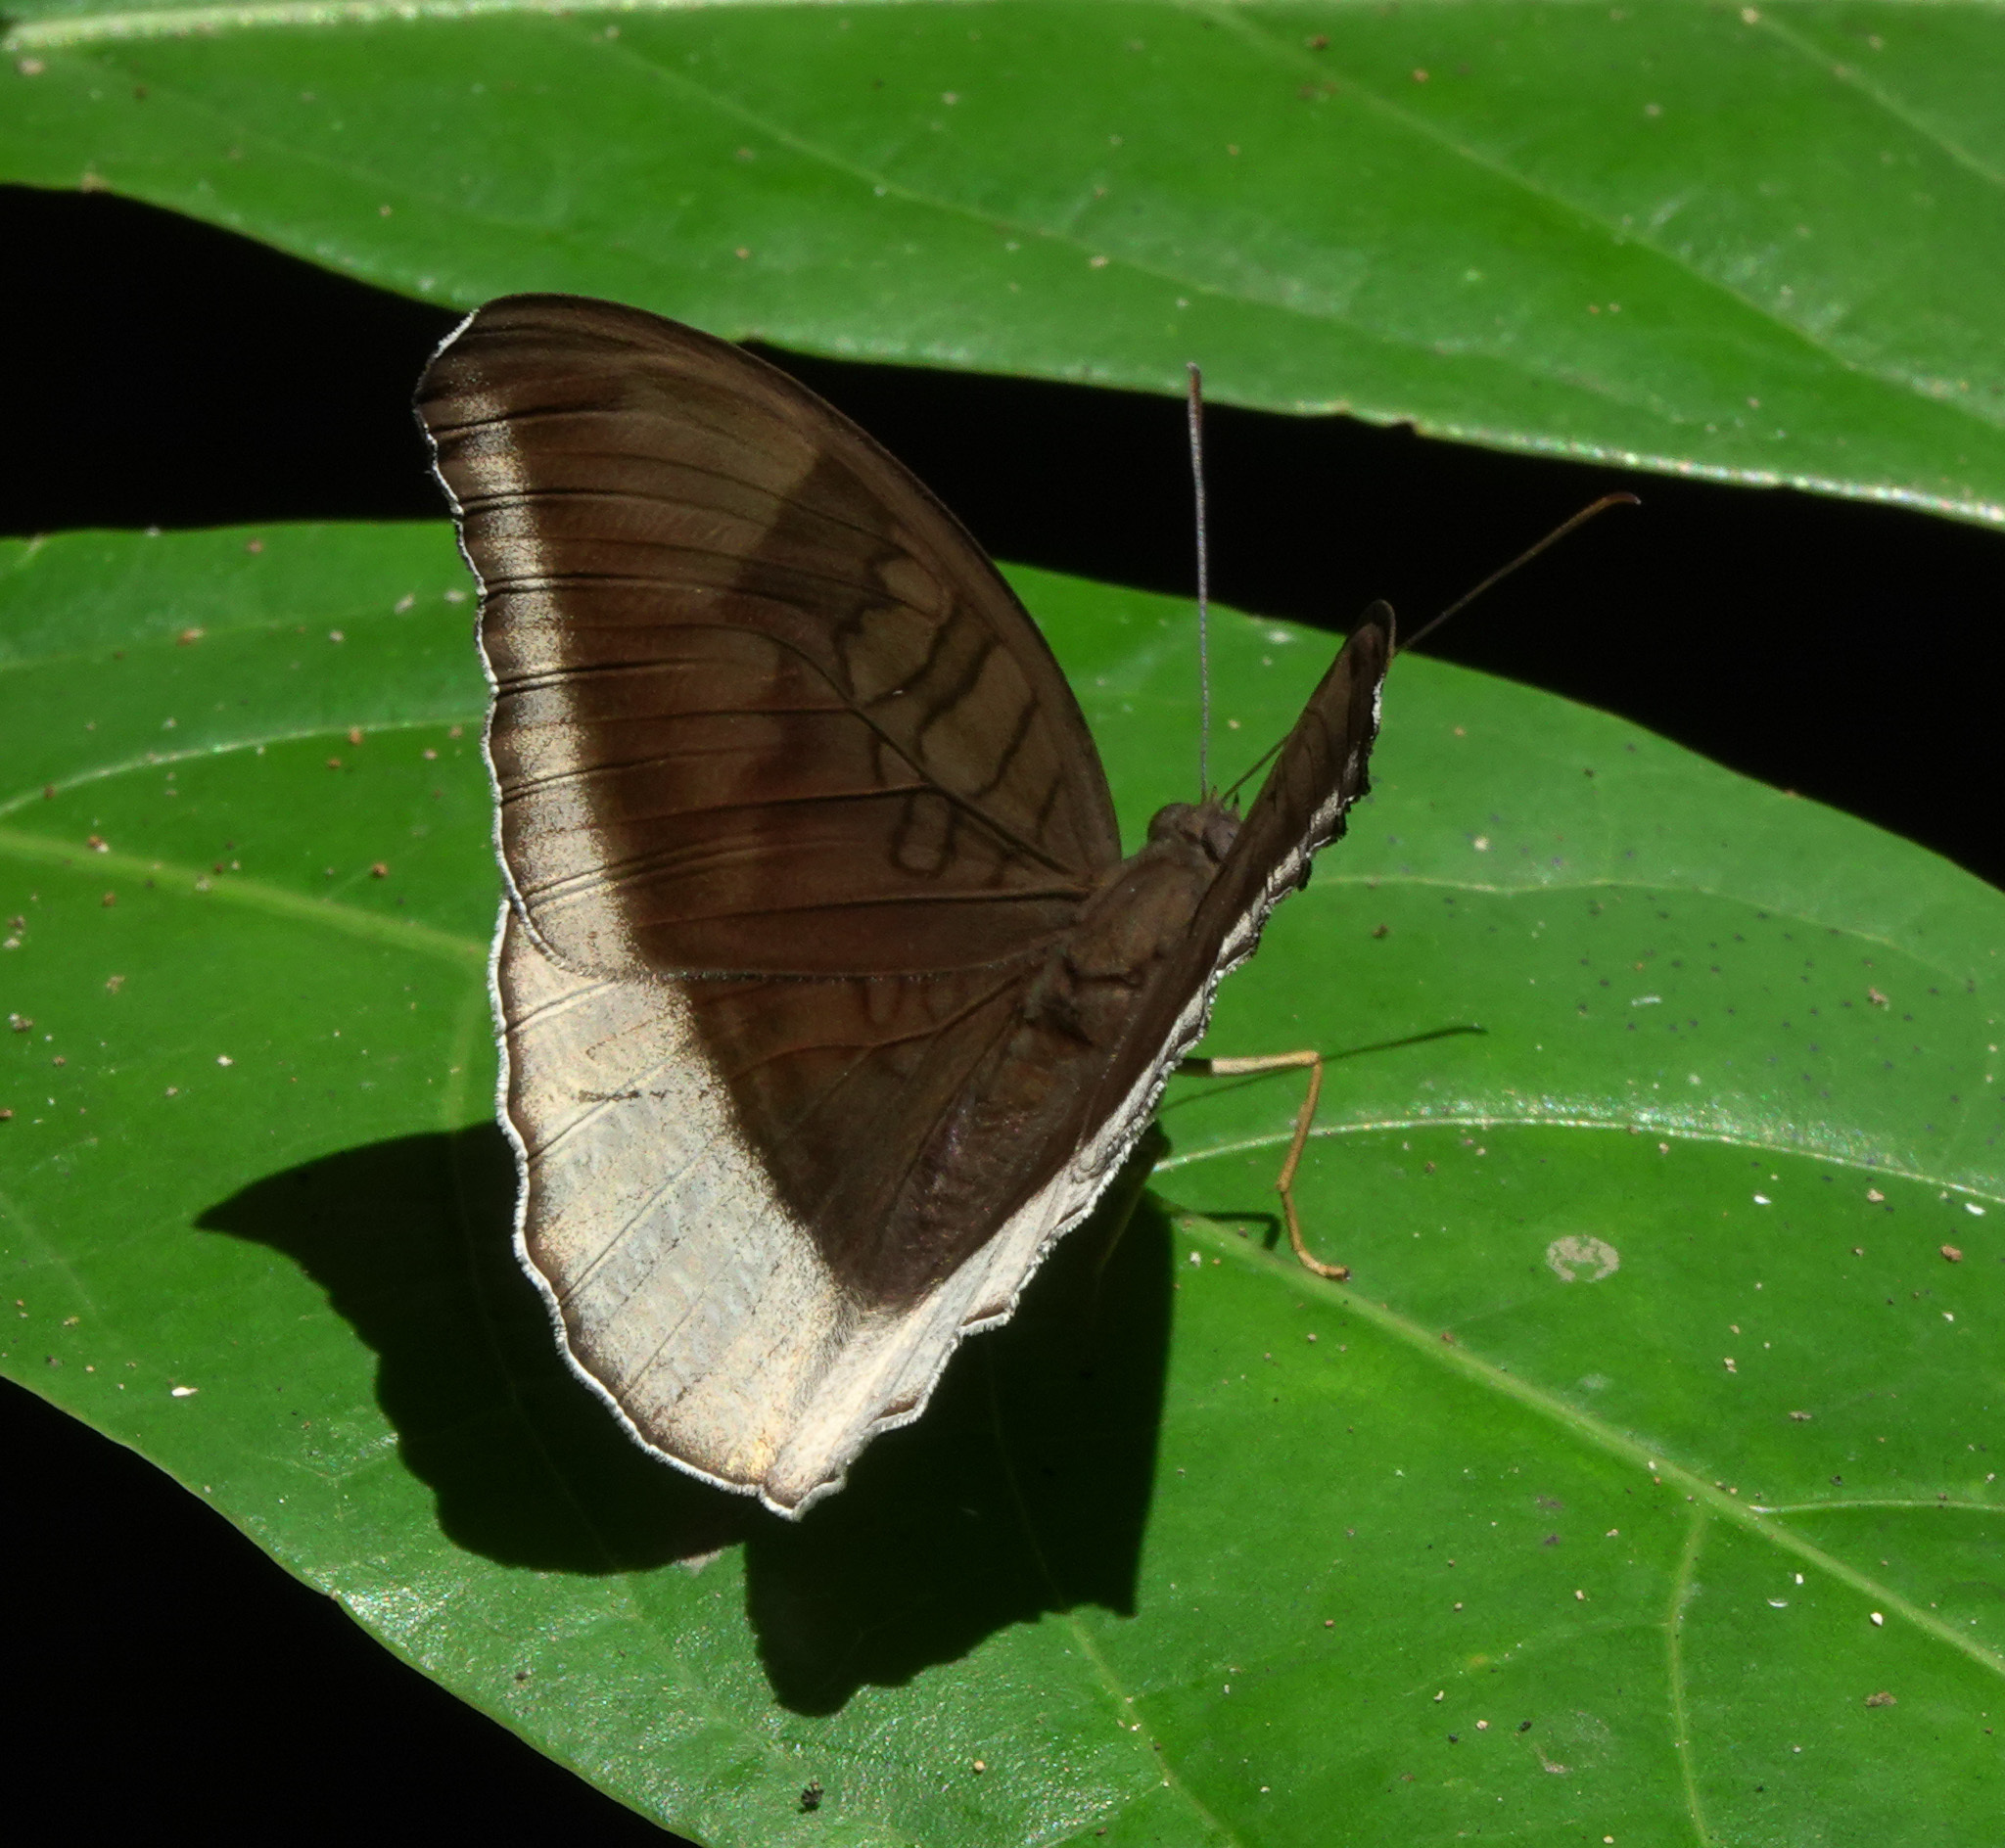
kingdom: Animalia
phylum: Arthropoda
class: Insecta
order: Lepidoptera
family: Nymphalidae
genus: Tanaecia
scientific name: Tanaecia lepidea
